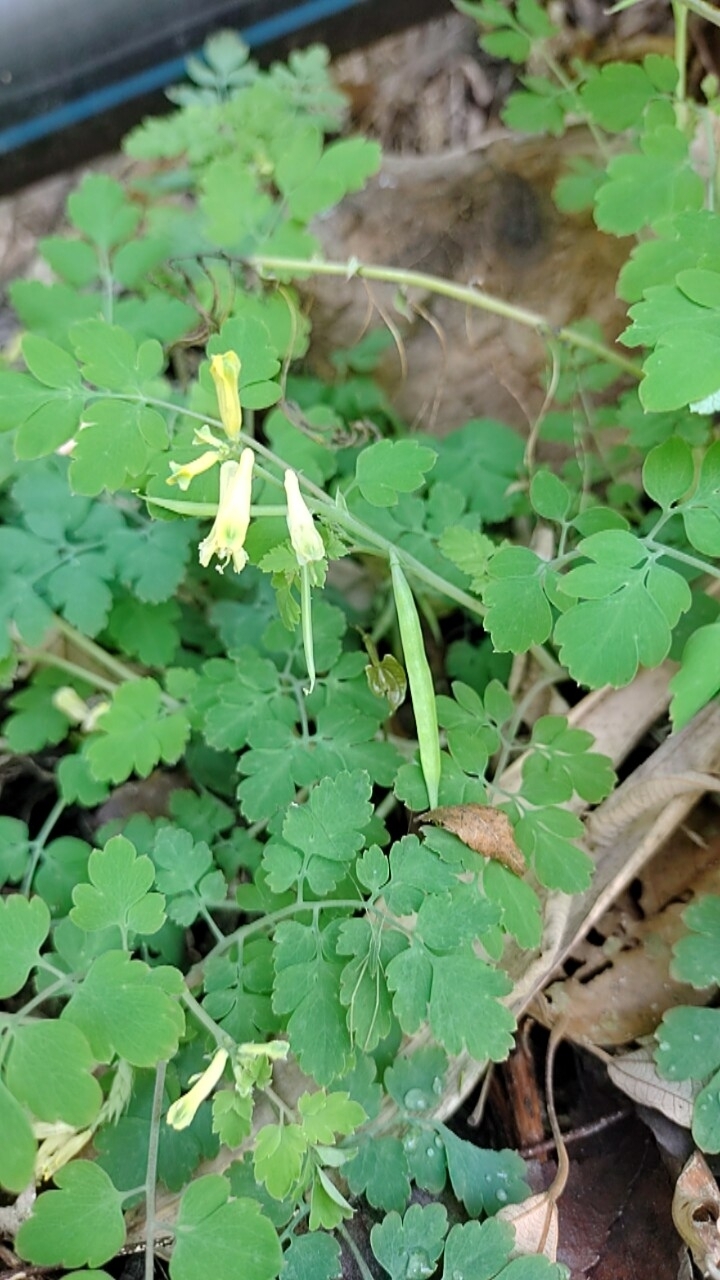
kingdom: Plantae
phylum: Tracheophyta
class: Magnoliopsida
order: Ranunculales
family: Papaveraceae
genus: Corydalis
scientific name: Corydalis balansae
